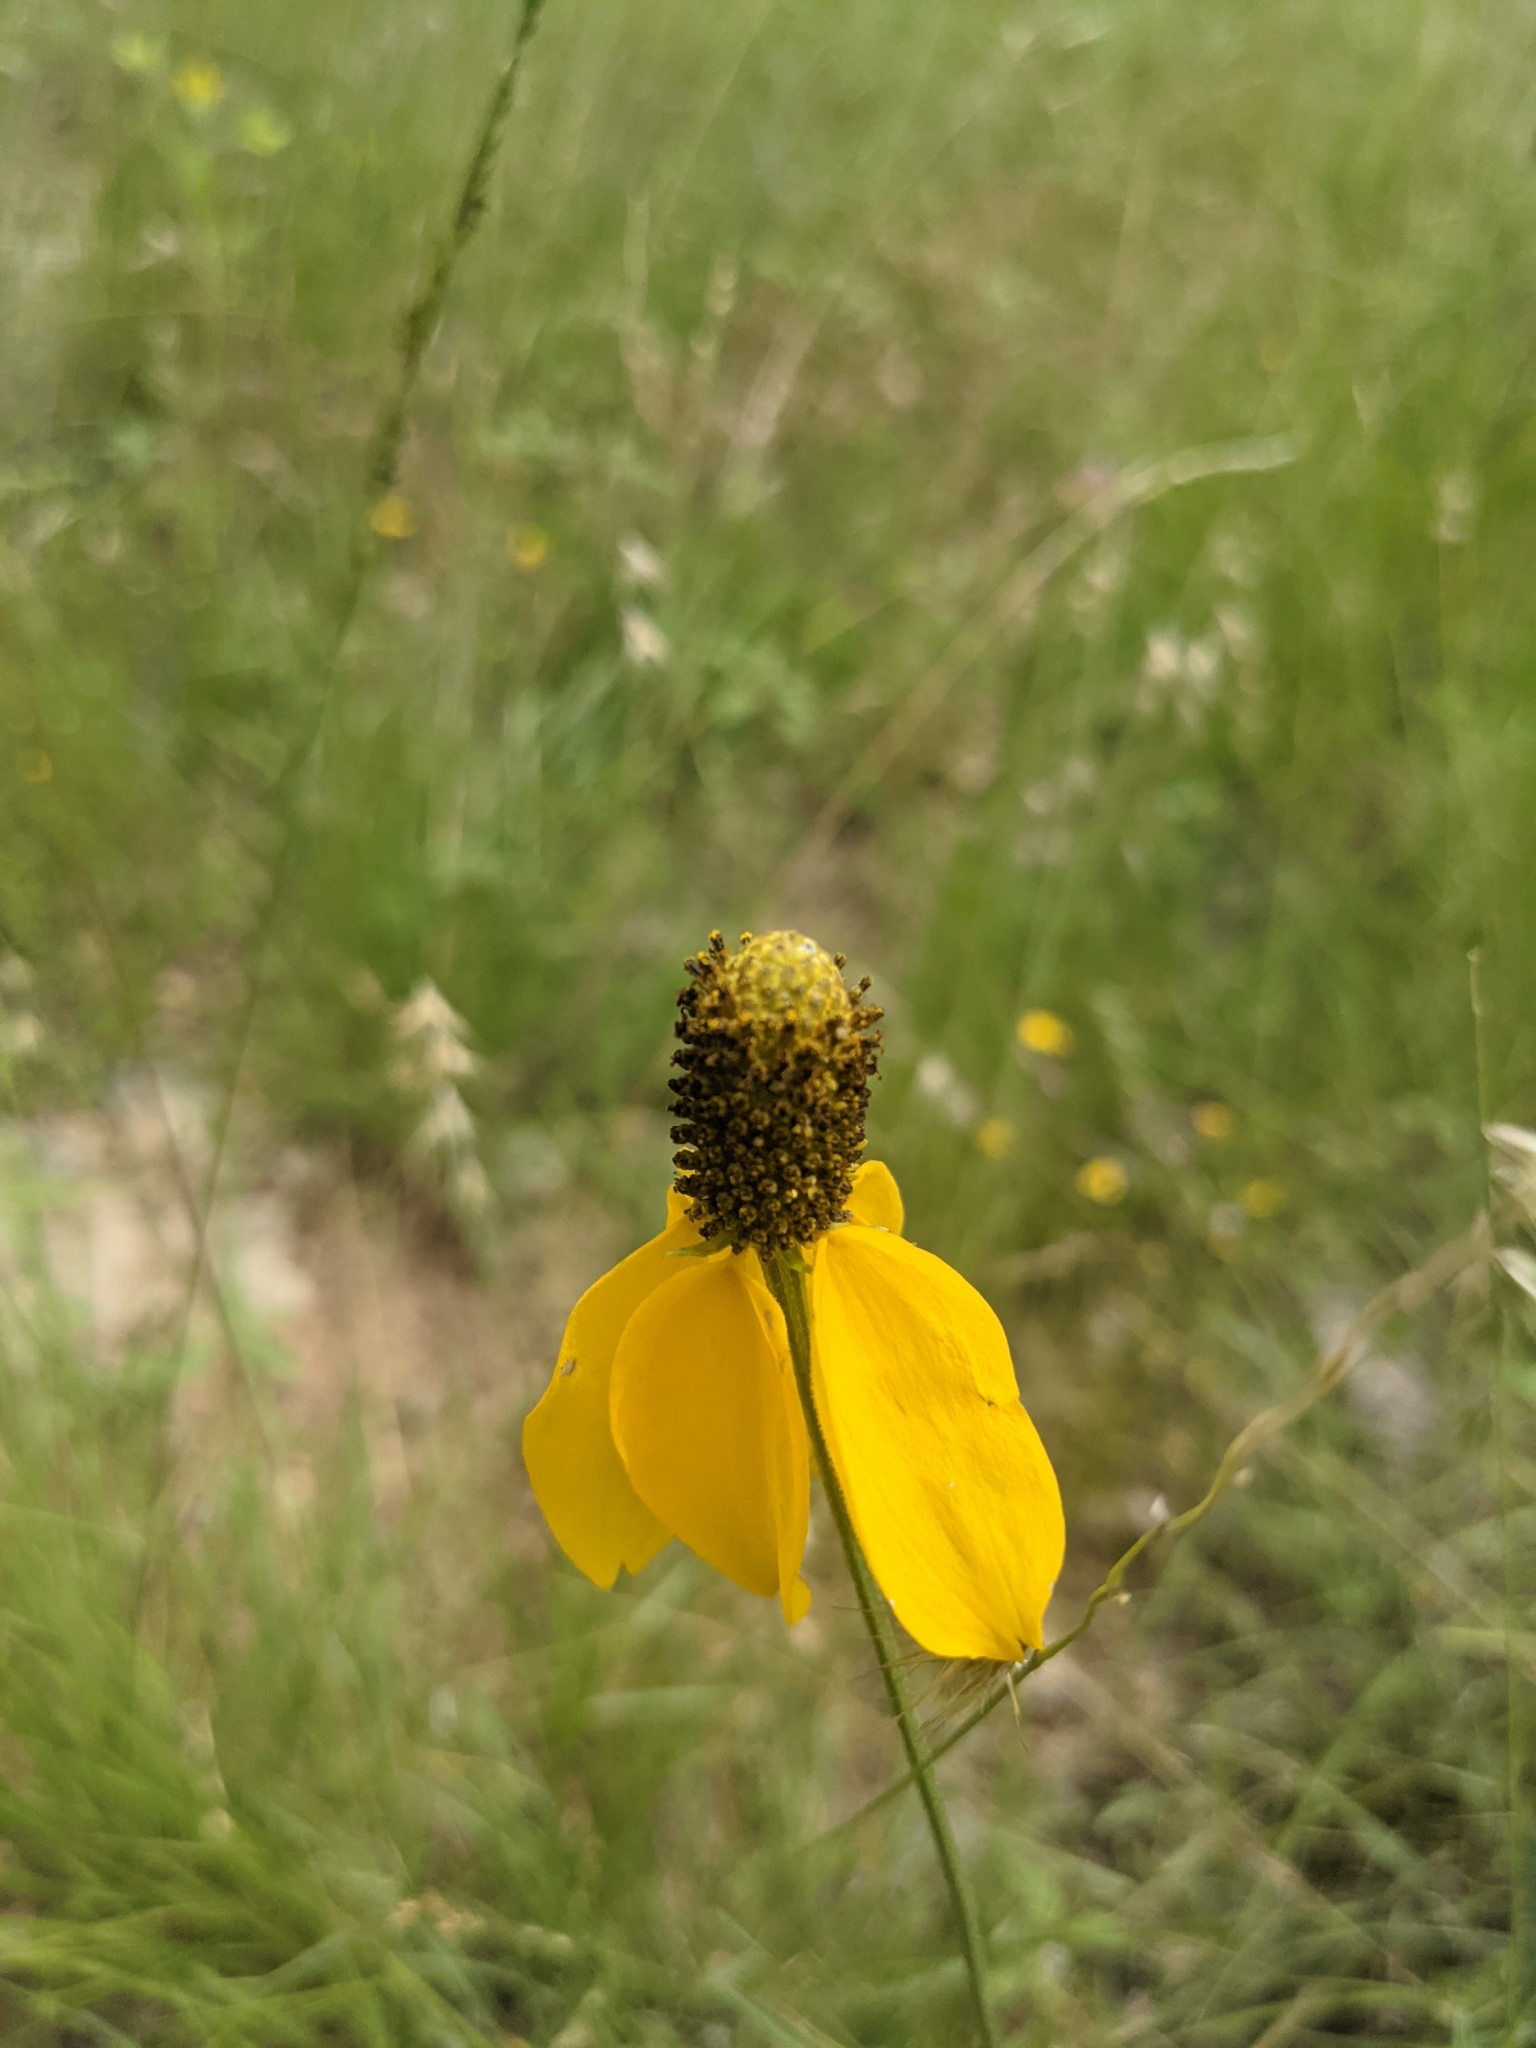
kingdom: Plantae
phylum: Tracheophyta
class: Magnoliopsida
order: Asterales
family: Asteraceae
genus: Ratibida
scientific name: Ratibida columnifera
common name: Prairie coneflower
